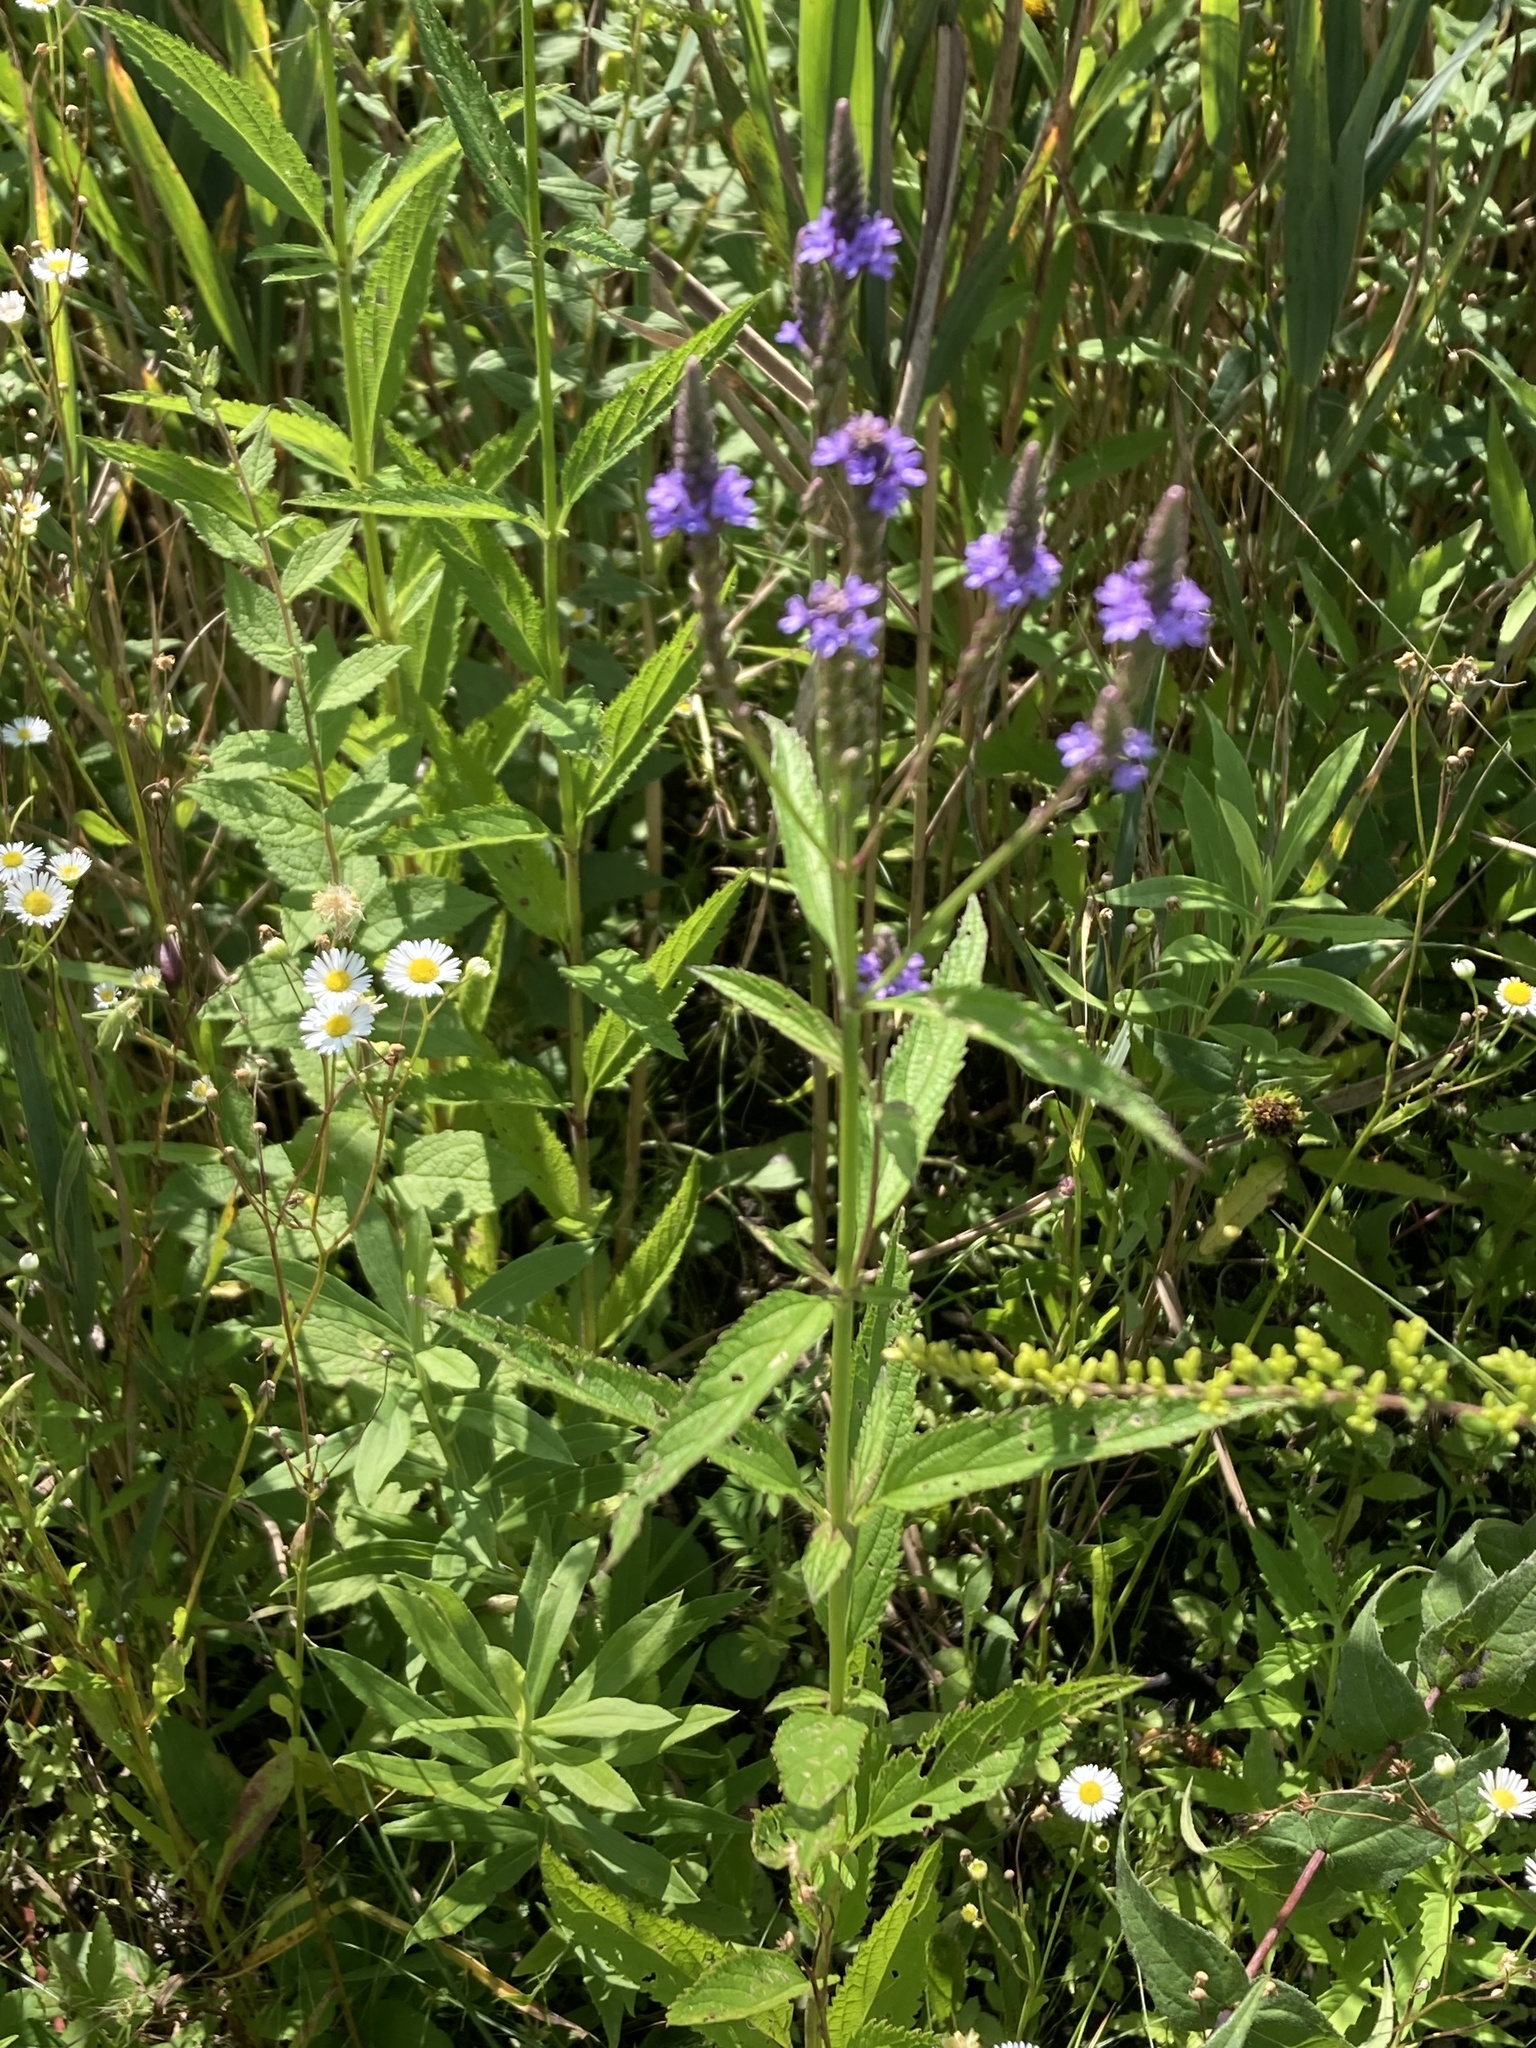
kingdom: Plantae
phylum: Tracheophyta
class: Magnoliopsida
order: Lamiales
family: Verbenaceae
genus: Verbena
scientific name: Verbena hastata
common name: American blue vervain
